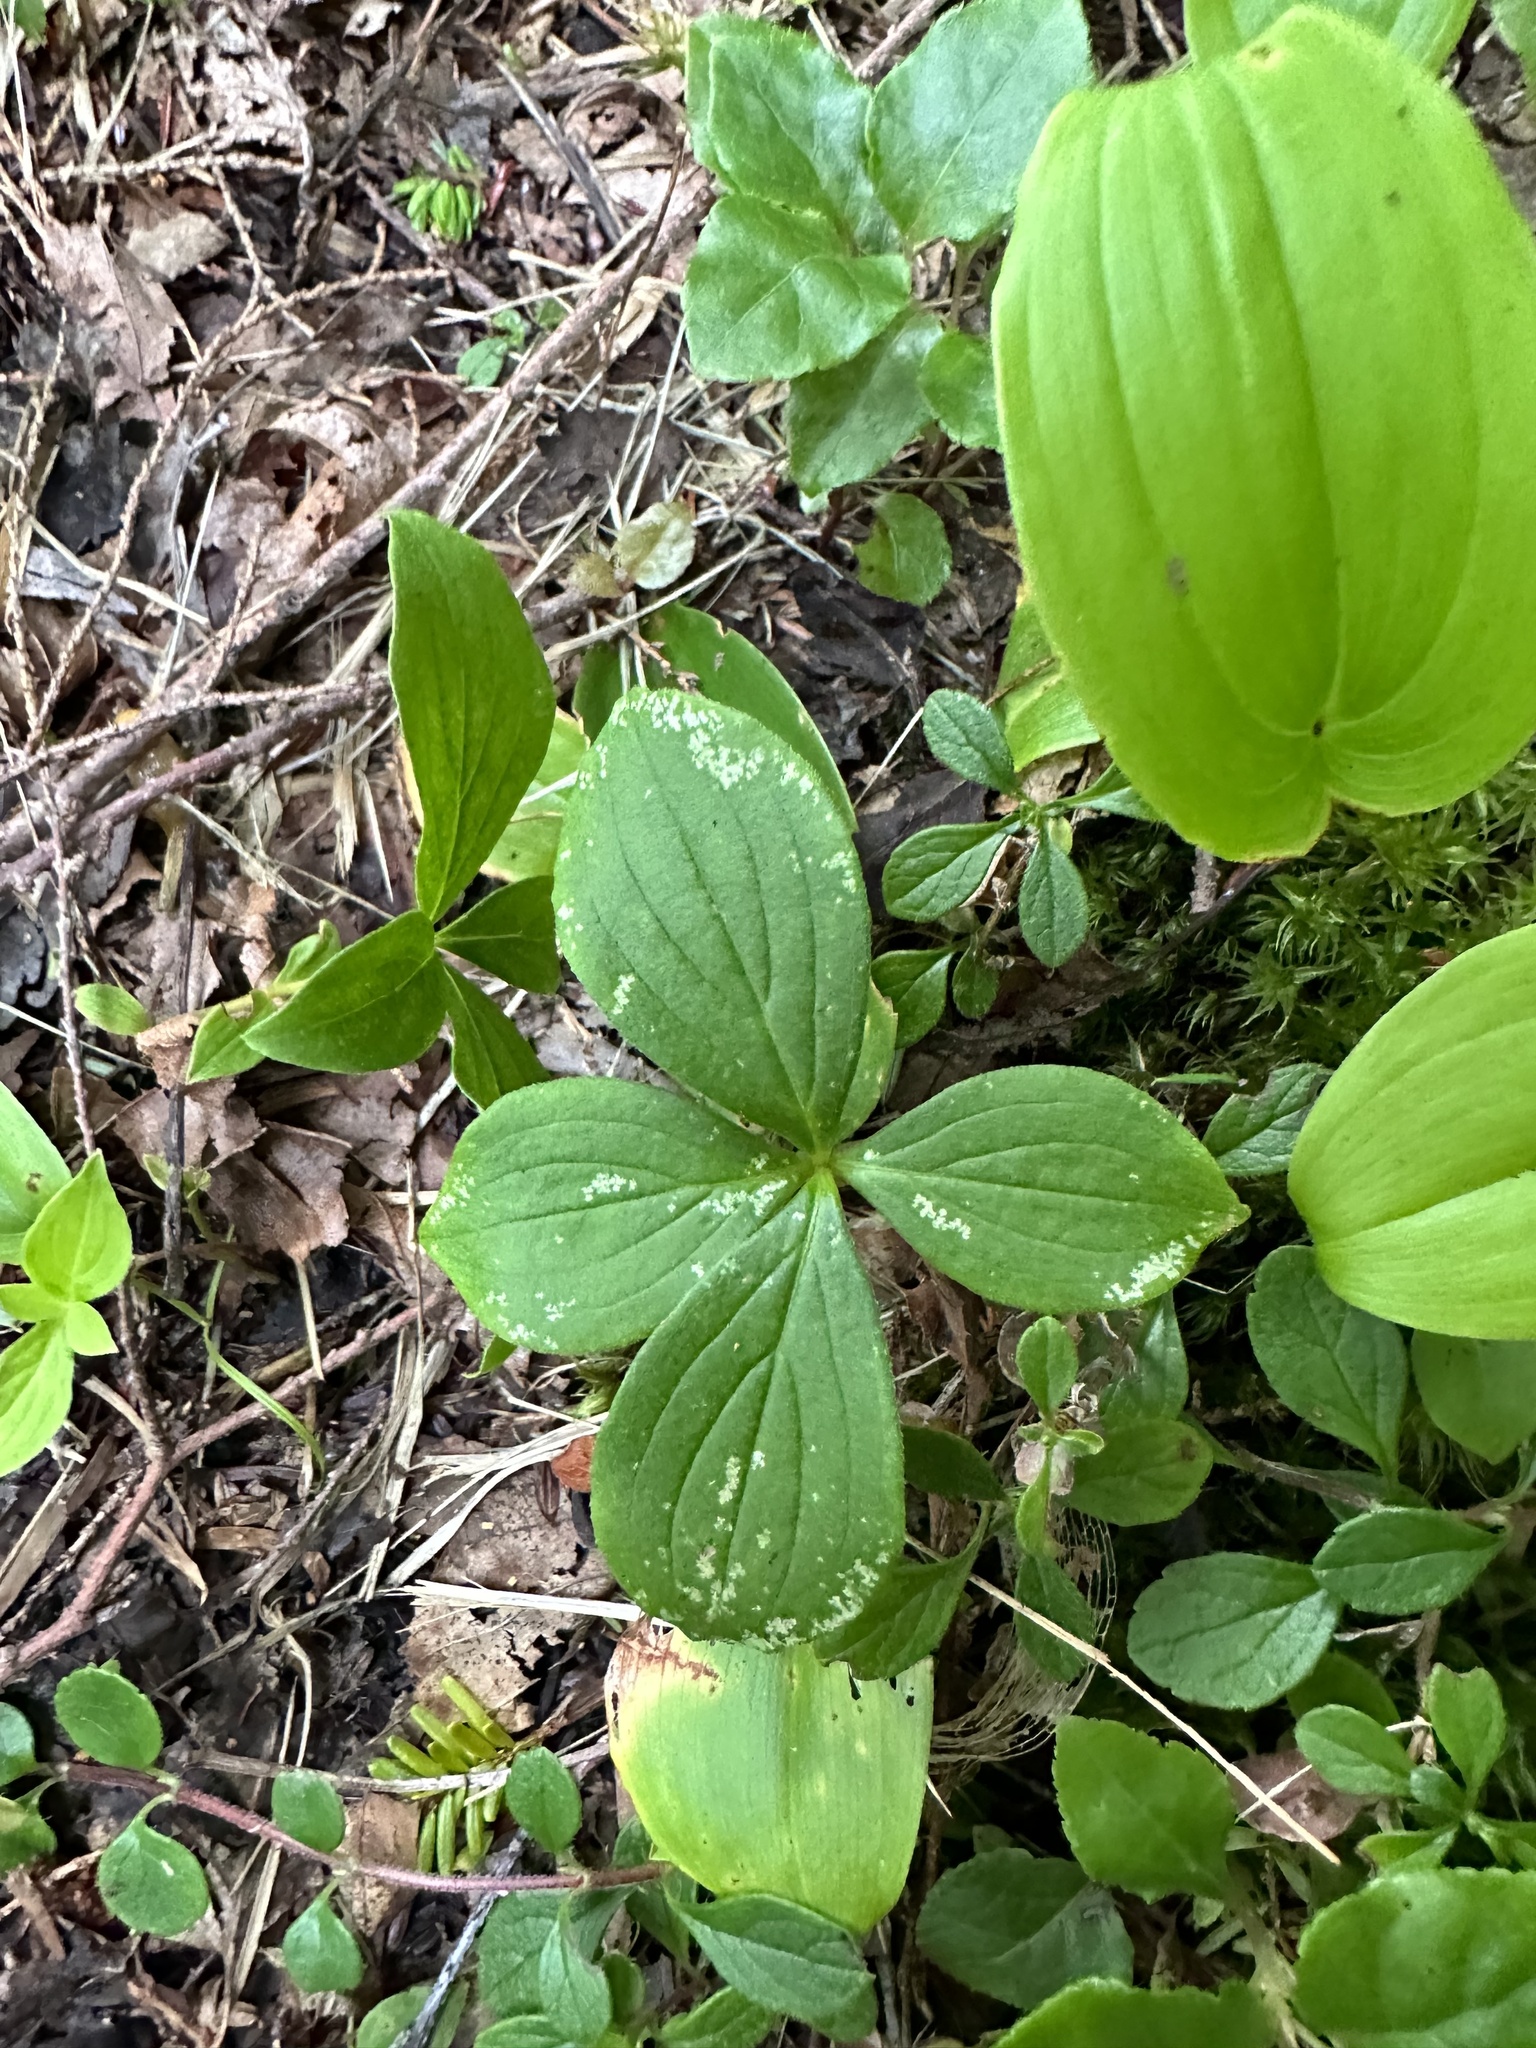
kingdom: Plantae
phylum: Tracheophyta
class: Magnoliopsida
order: Cornales
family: Cornaceae
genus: Cornus
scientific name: Cornus canadensis
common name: Creeping dogwood
